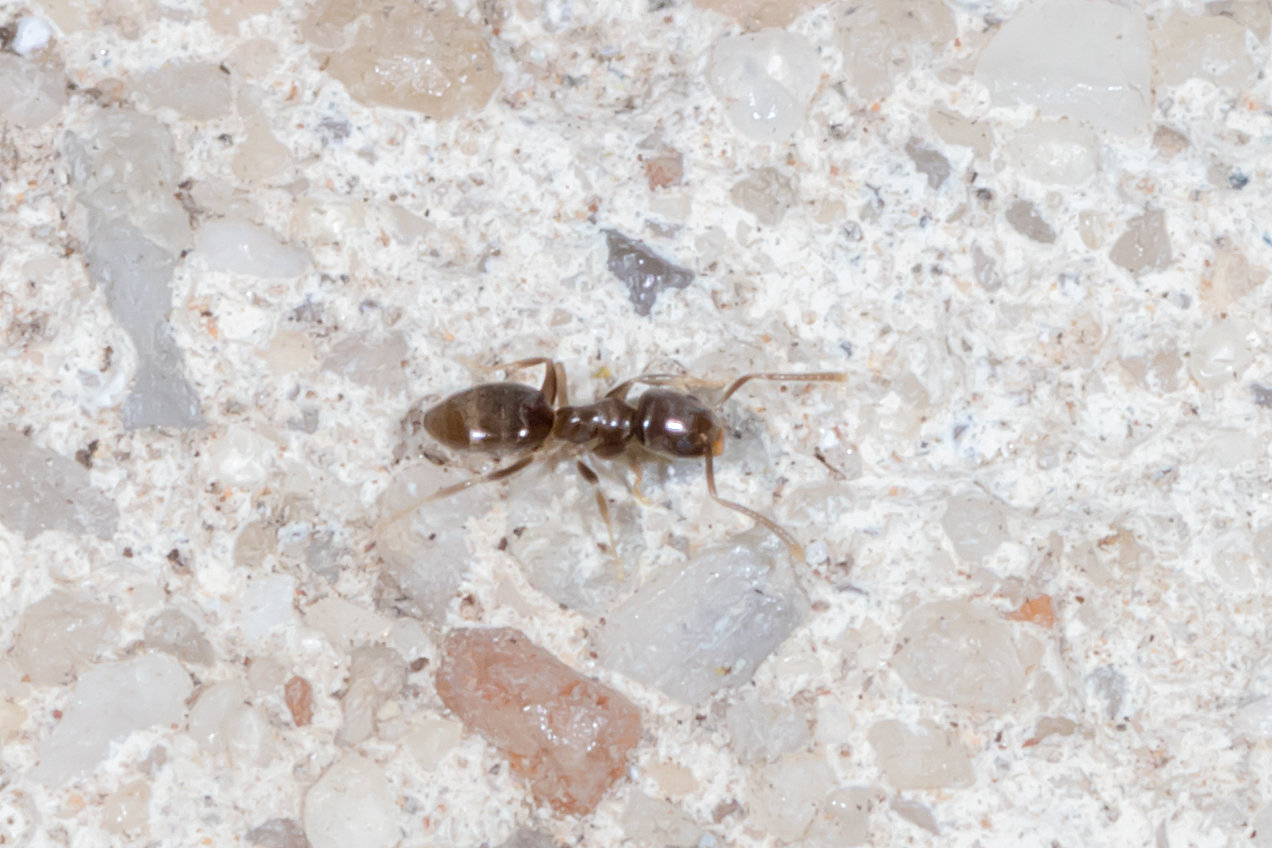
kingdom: Animalia
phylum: Arthropoda
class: Insecta
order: Hymenoptera
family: Formicidae
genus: Linepithema
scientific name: Linepithema humile
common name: Argentine ant
